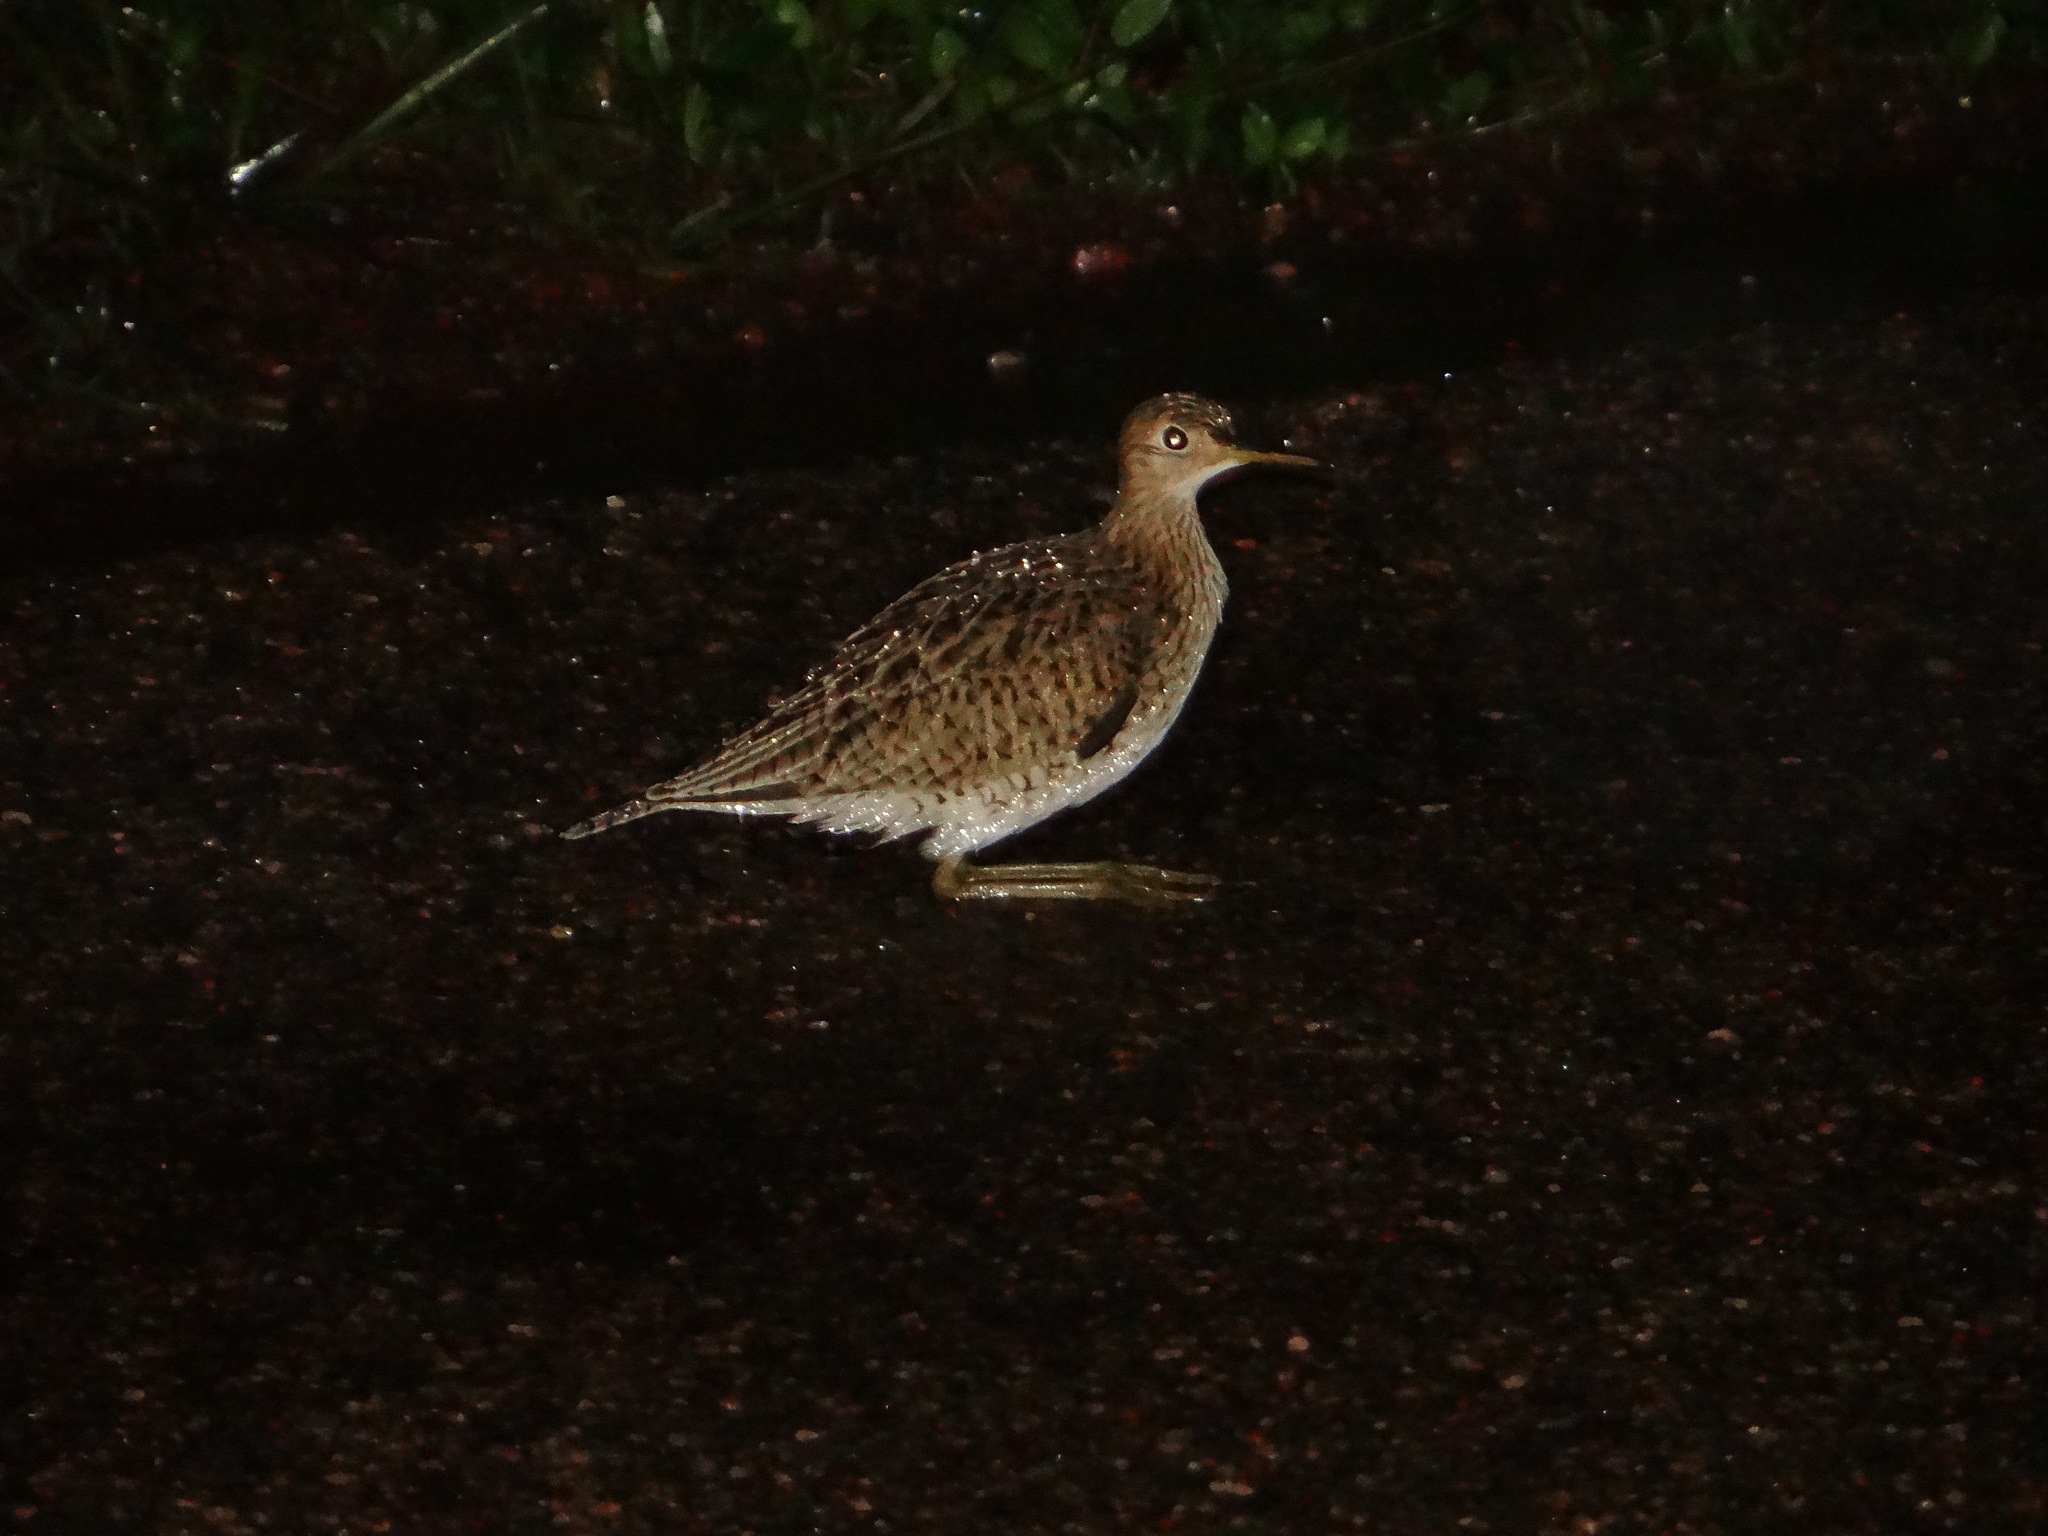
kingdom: Animalia
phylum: Chordata
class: Aves
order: Charadriiformes
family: Scolopacidae
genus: Bartramia
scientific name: Bartramia longicauda
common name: Upland sandpiper
